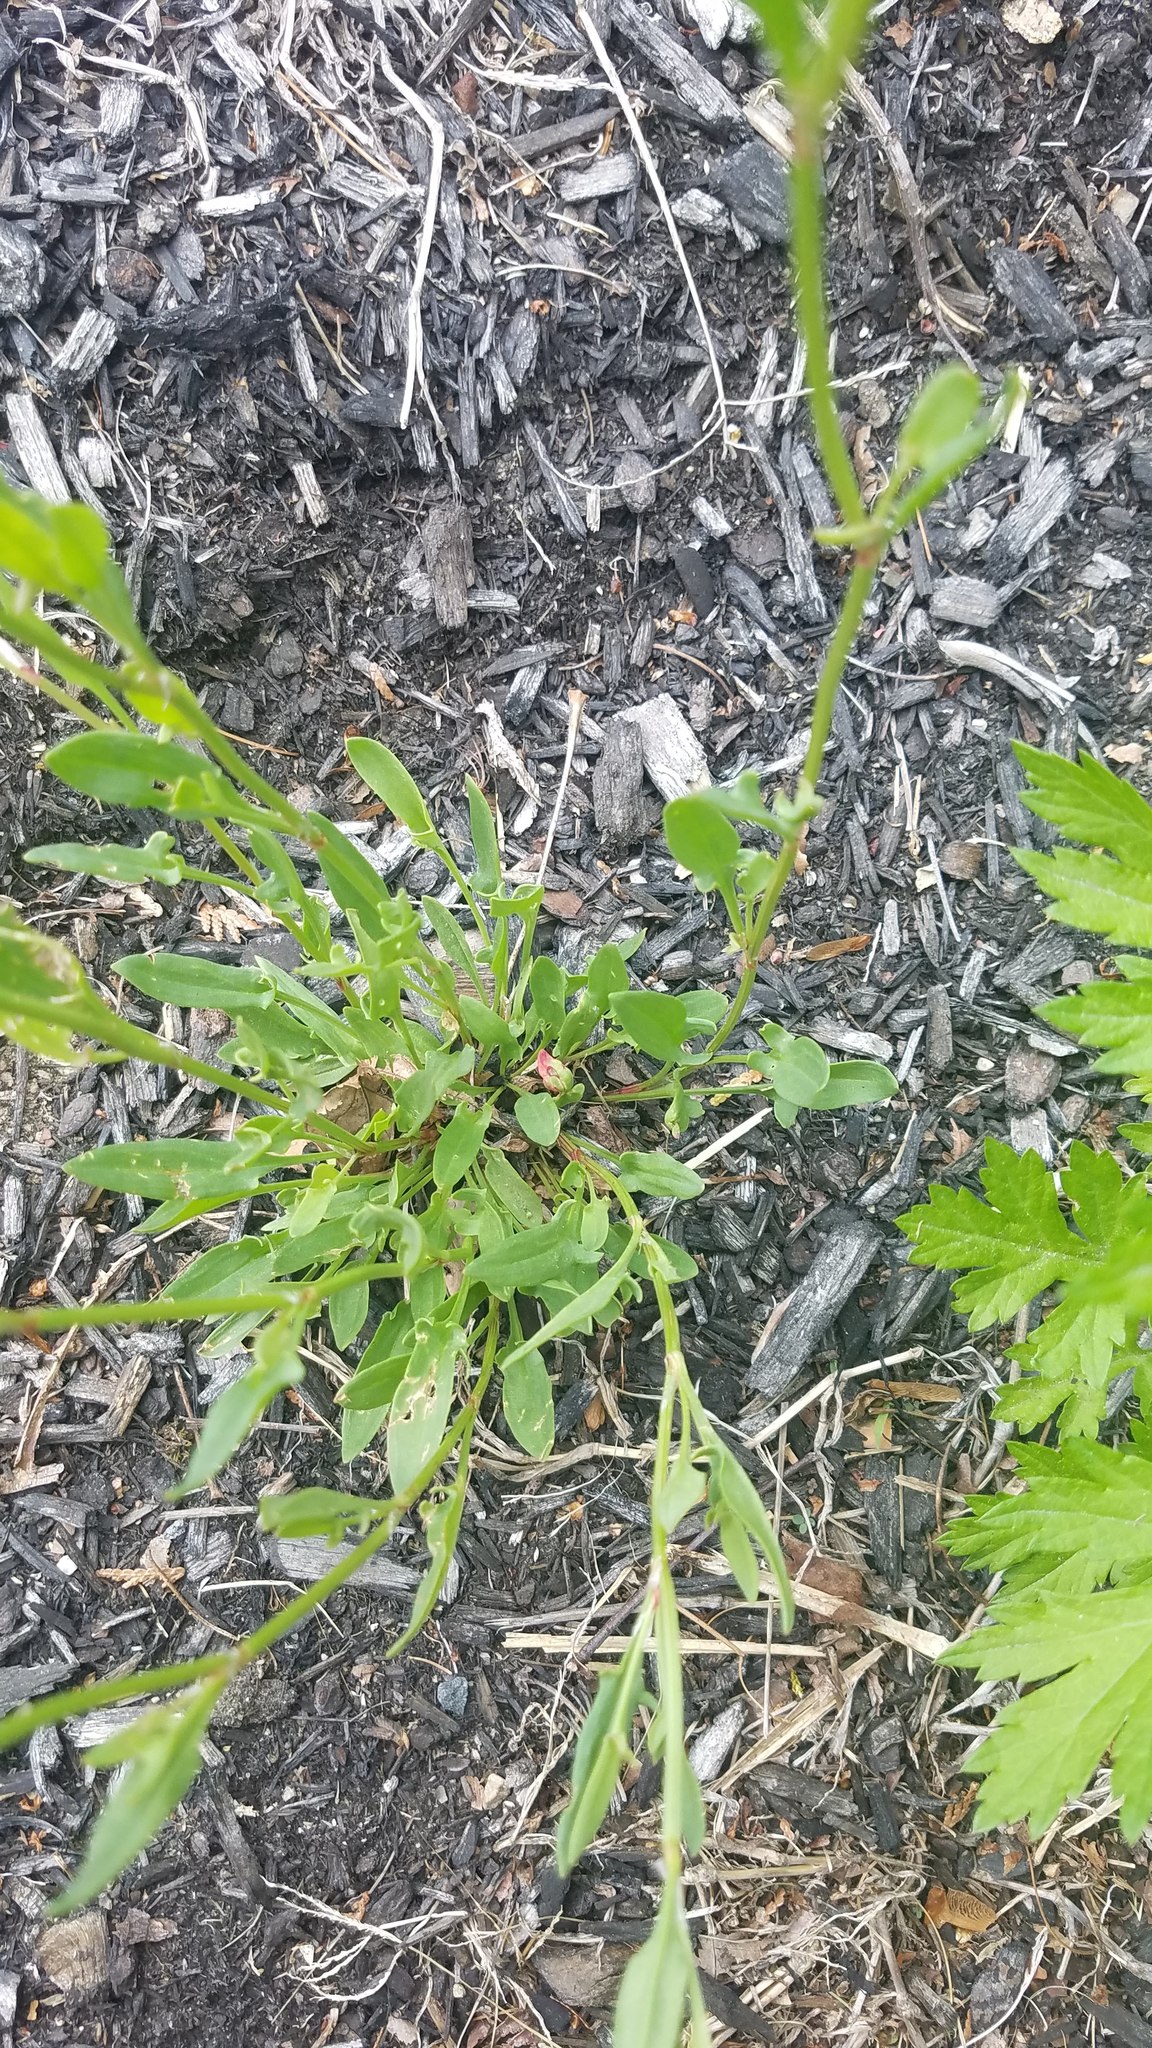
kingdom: Plantae
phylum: Tracheophyta
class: Magnoliopsida
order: Caryophyllales
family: Polygonaceae
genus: Rumex
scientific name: Rumex acetosella
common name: Common sheep sorrel
